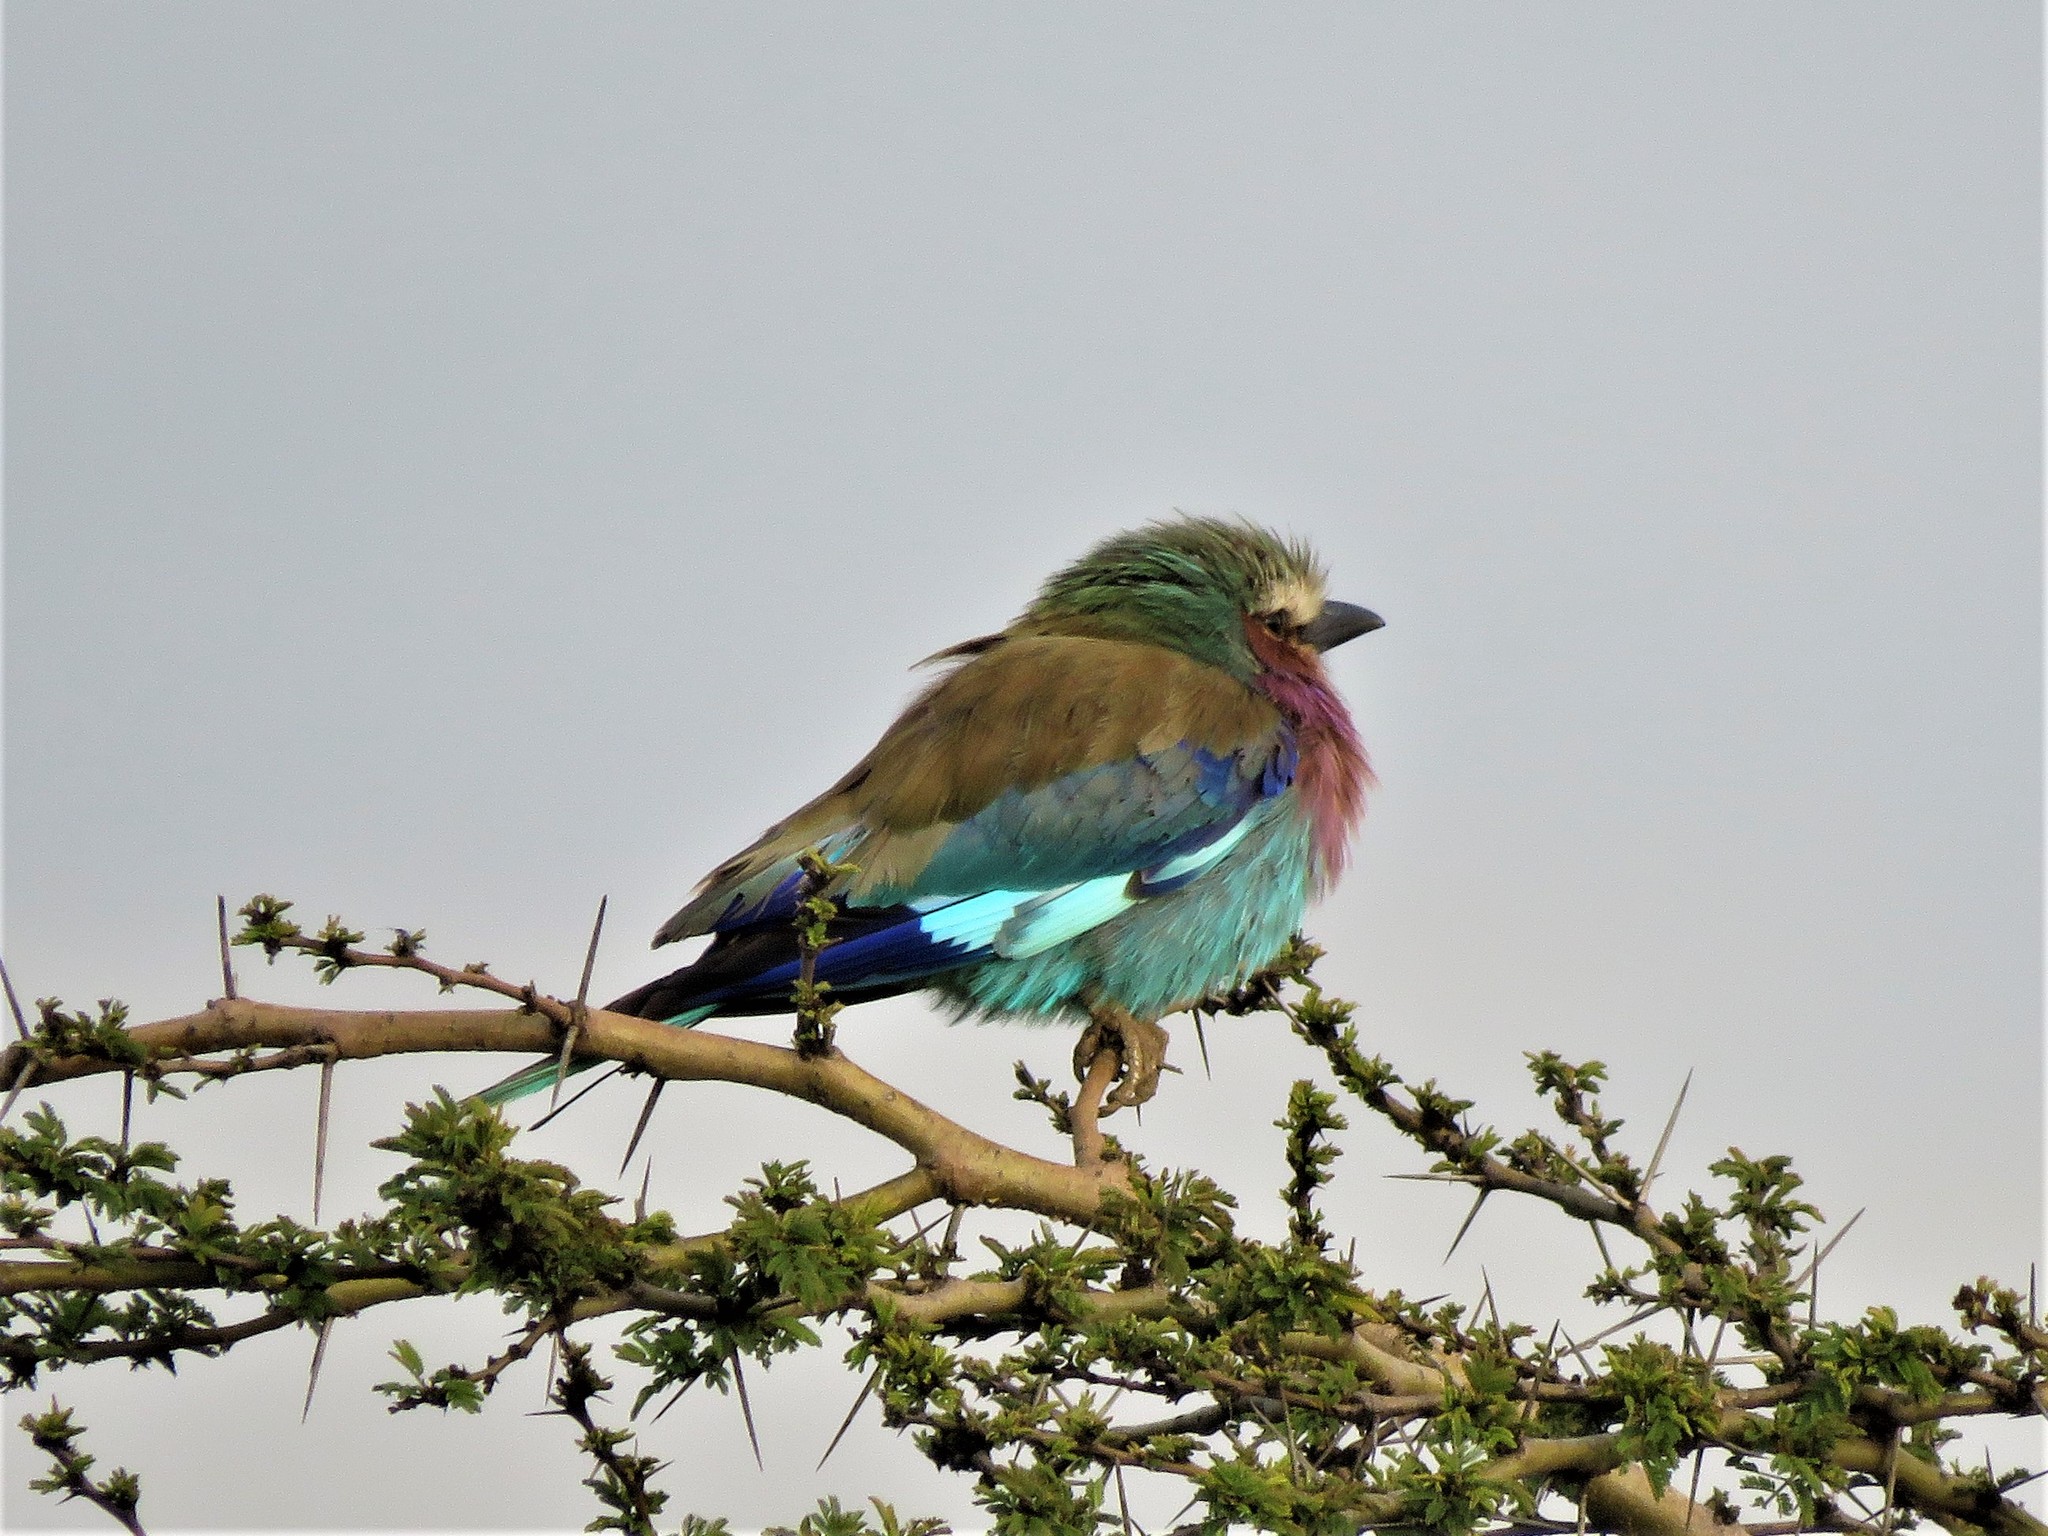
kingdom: Animalia
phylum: Chordata
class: Aves
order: Coraciiformes
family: Coraciidae
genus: Coracias
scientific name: Coracias caudatus
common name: Lilac-breasted roller
